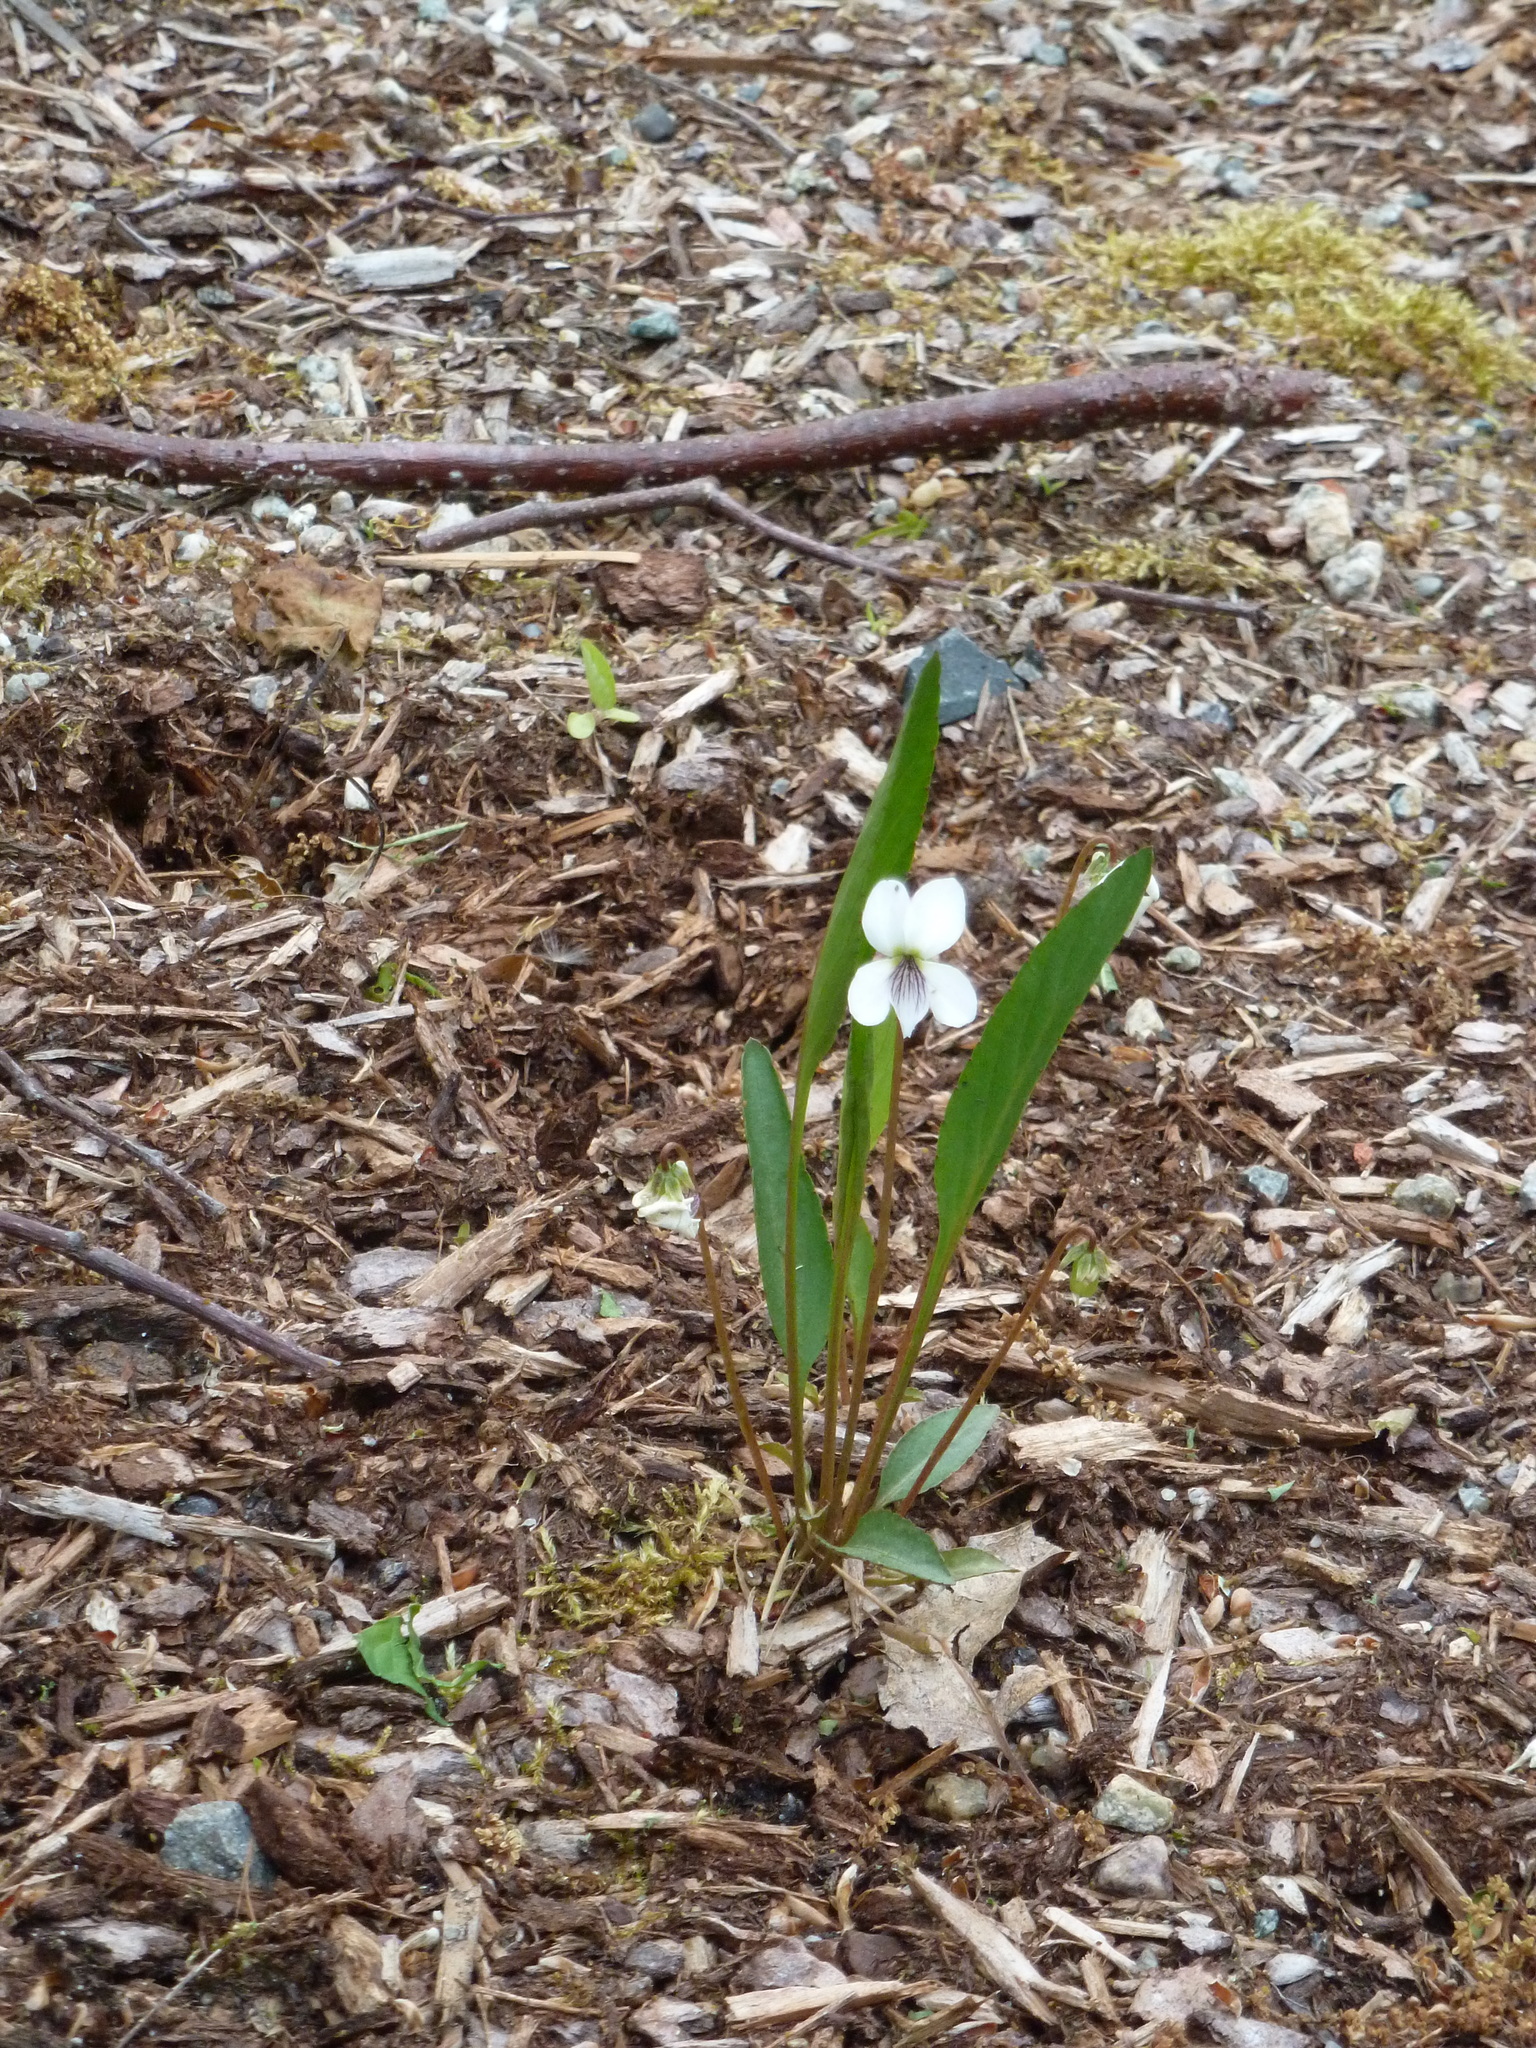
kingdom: Plantae
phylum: Tracheophyta
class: Magnoliopsida
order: Malpighiales
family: Violaceae
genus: Viola
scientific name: Viola lanceolata
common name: Bog white violet
